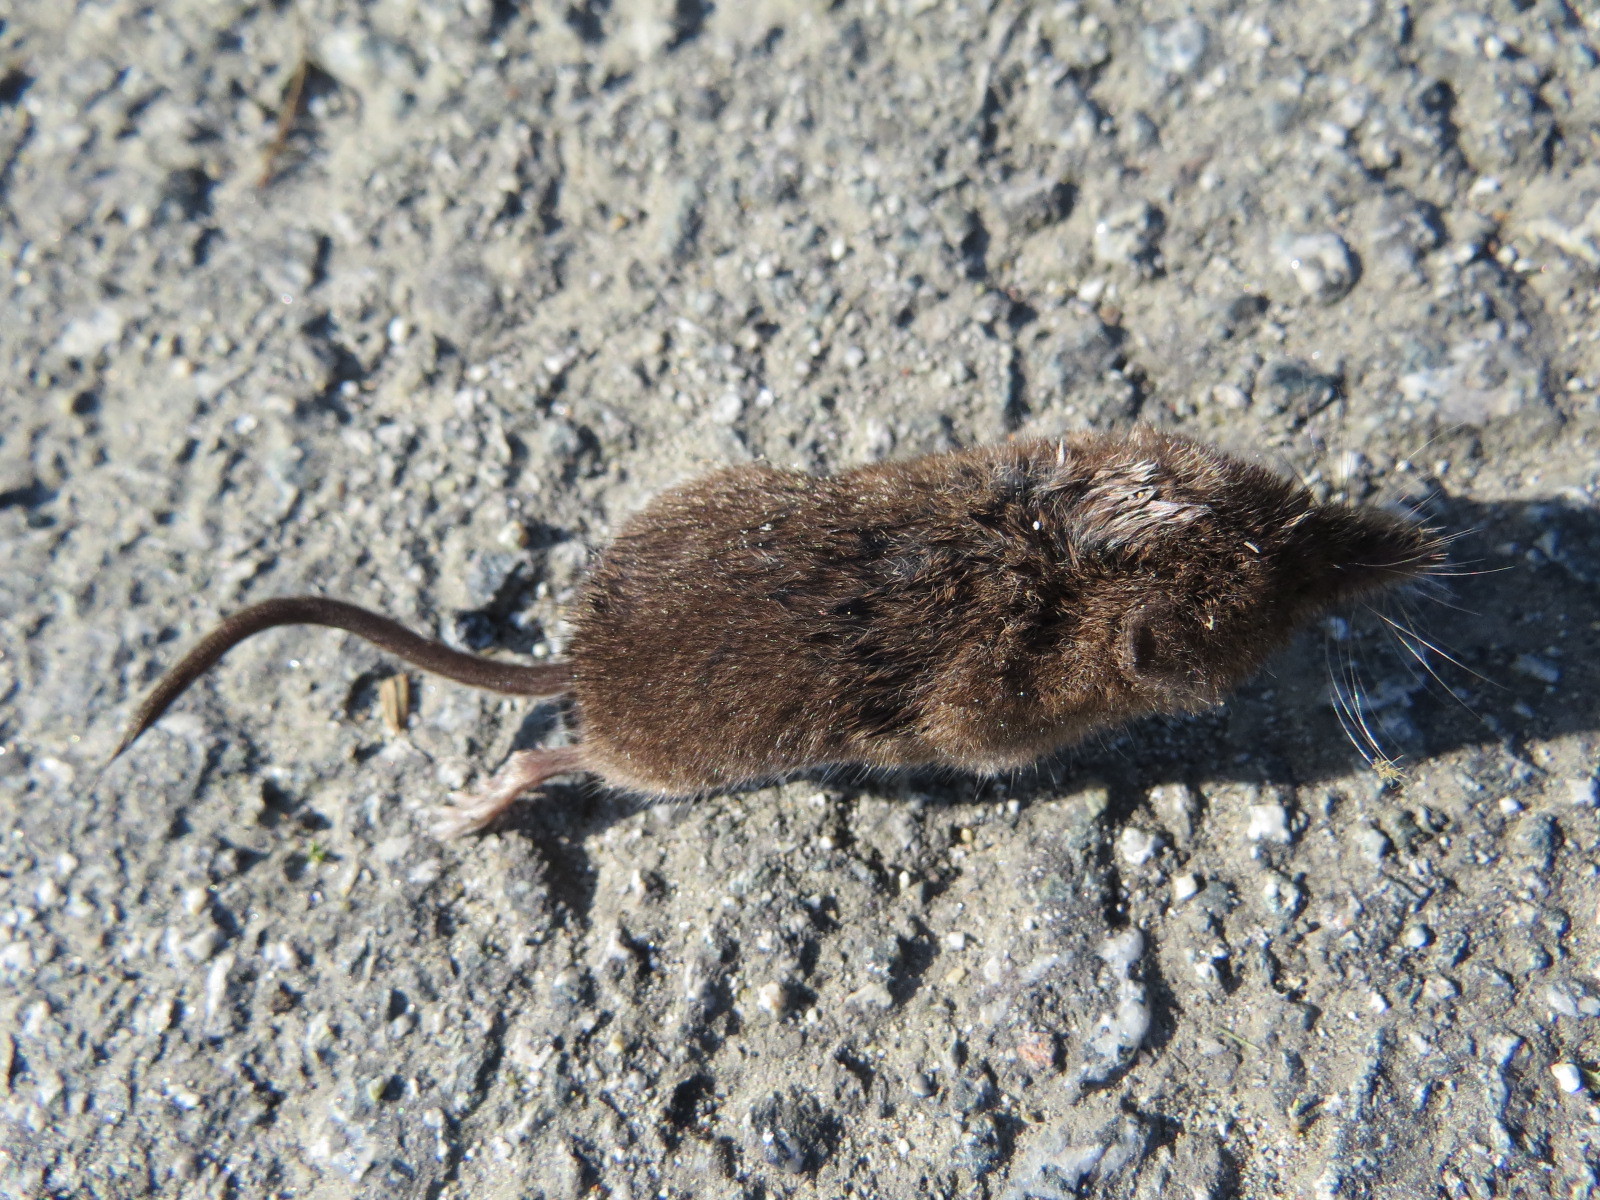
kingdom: Animalia
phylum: Chordata
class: Mammalia
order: Soricomorpha
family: Soricidae
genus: Sorex
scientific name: Sorex ornatus
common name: Ornate shrew
